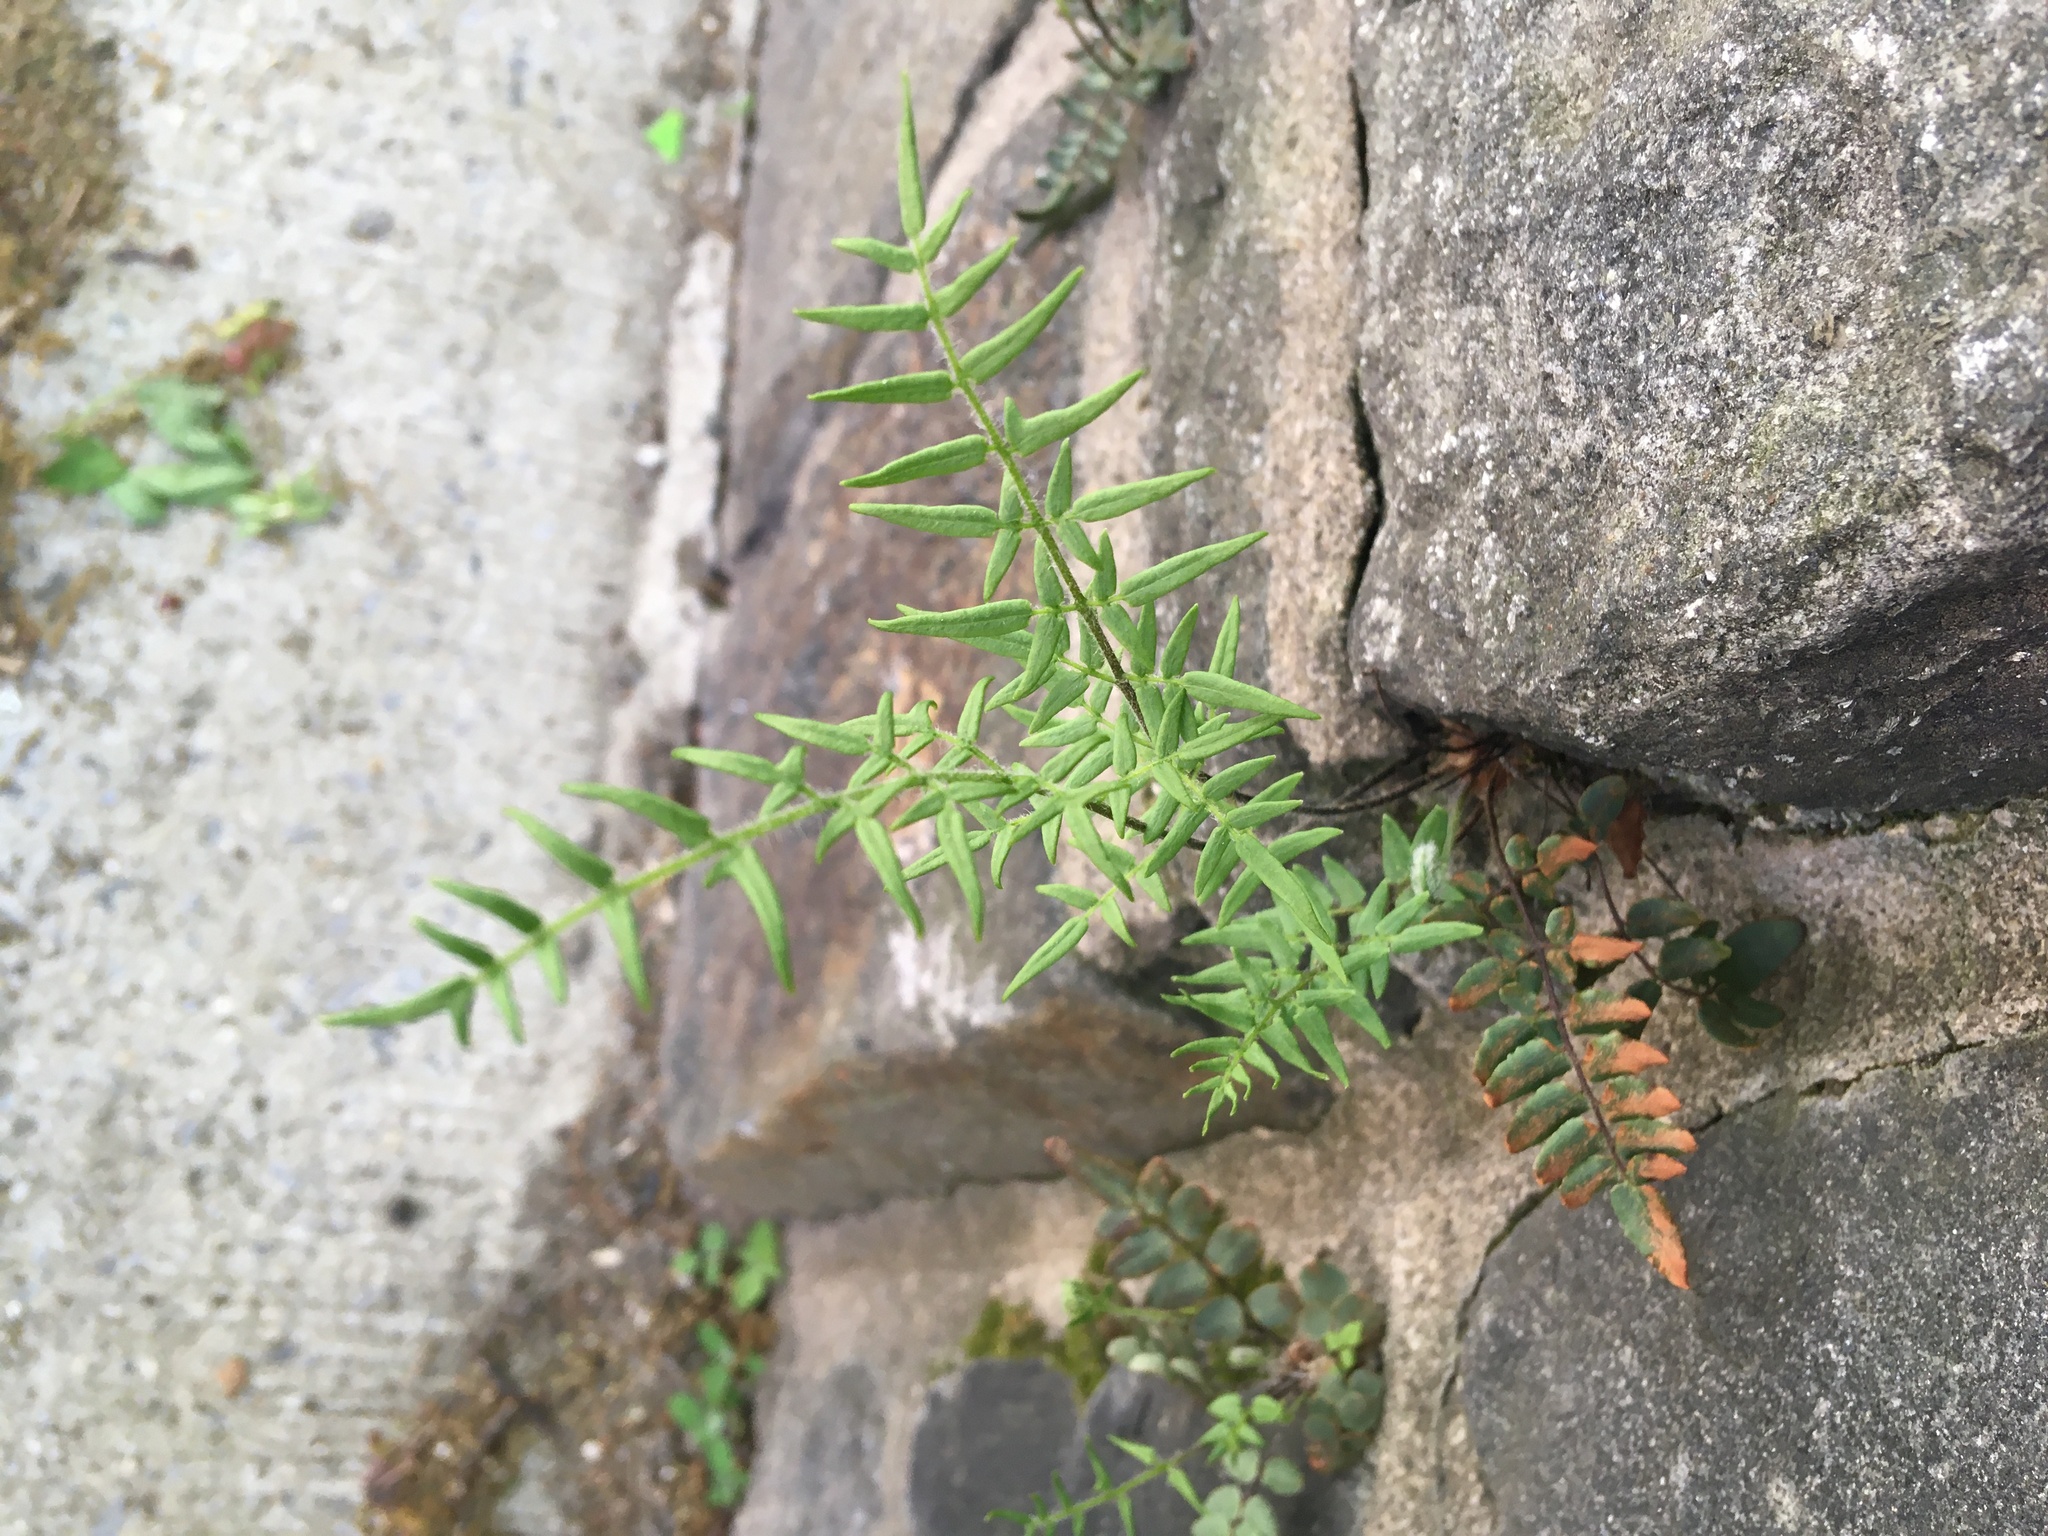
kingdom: Plantae
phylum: Tracheophyta
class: Polypodiopsida
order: Polypodiales
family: Pteridaceae
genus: Pellaea
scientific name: Pellaea atropurpurea
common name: Hairy cliffbrake
